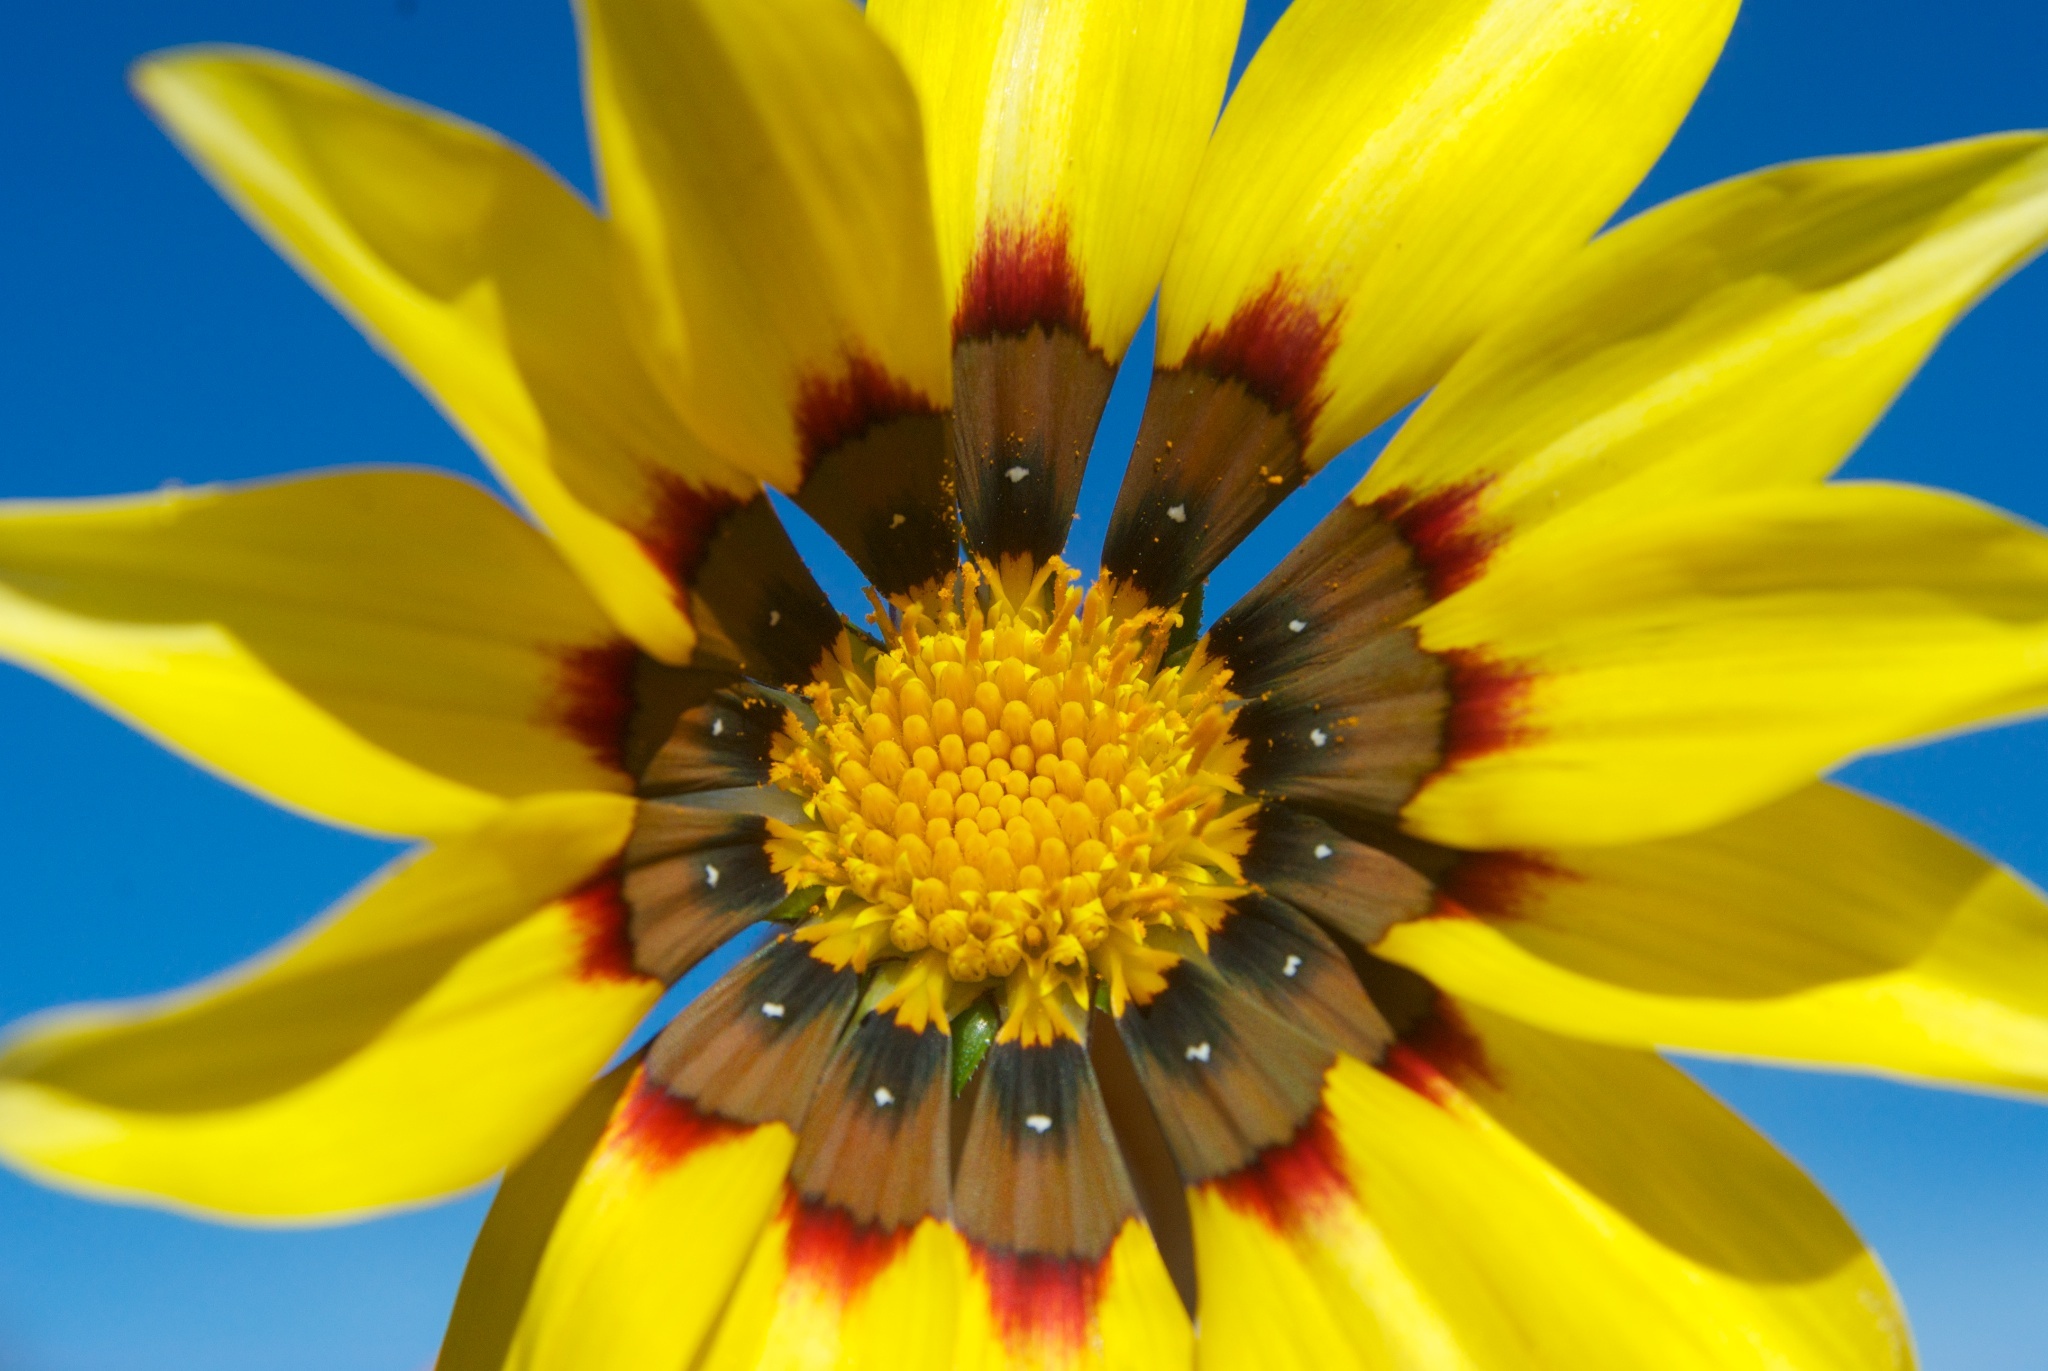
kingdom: Plantae
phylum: Tracheophyta
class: Magnoliopsida
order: Asterales
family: Asteraceae
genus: Gazania
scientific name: Gazania rigens
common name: Treasureflower
